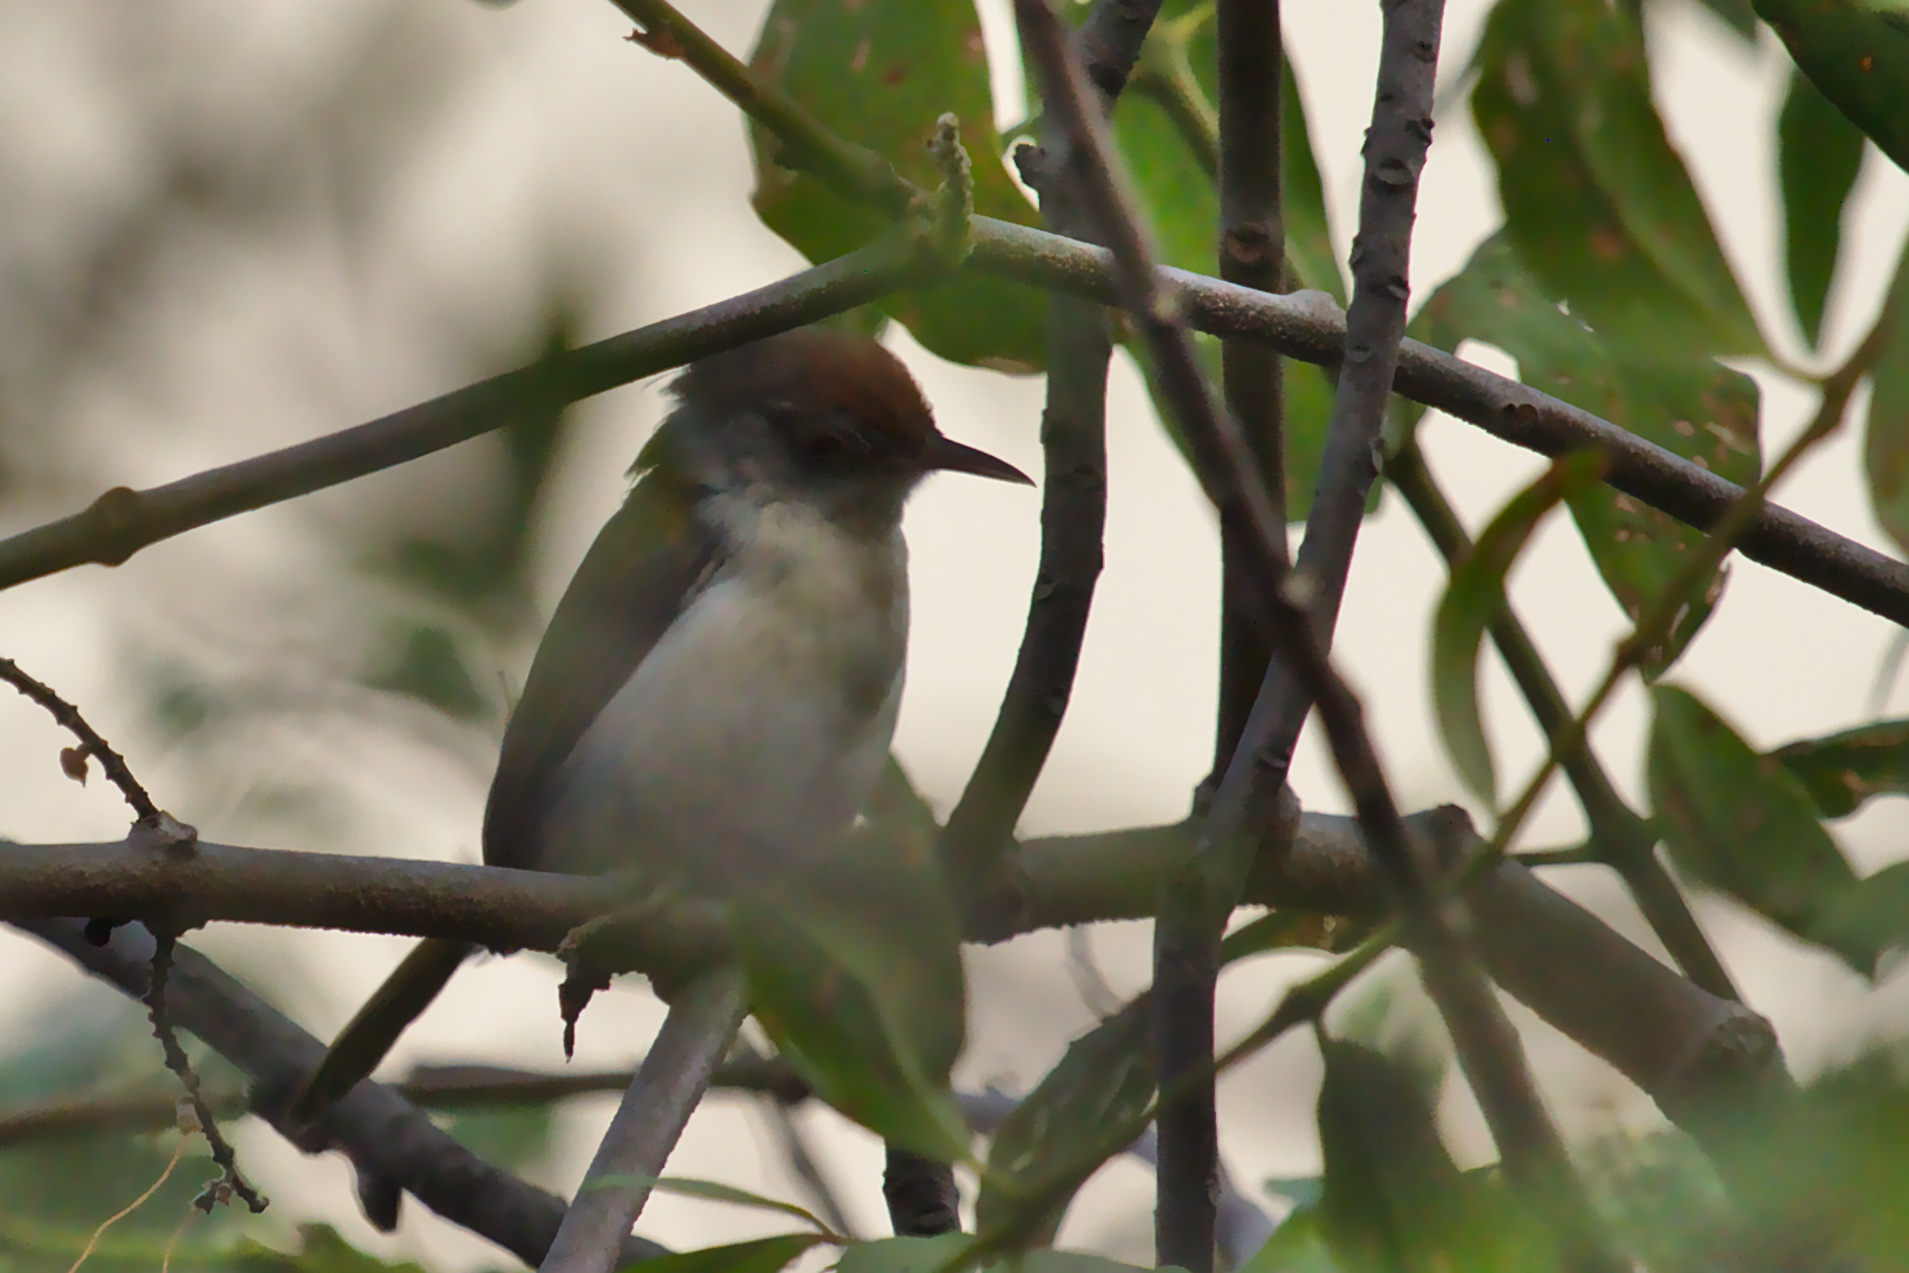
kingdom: Animalia
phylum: Chordata
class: Aves
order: Passeriformes
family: Cisticolidae
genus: Orthotomus
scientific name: Orthotomus sutorius
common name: Common tailorbird
